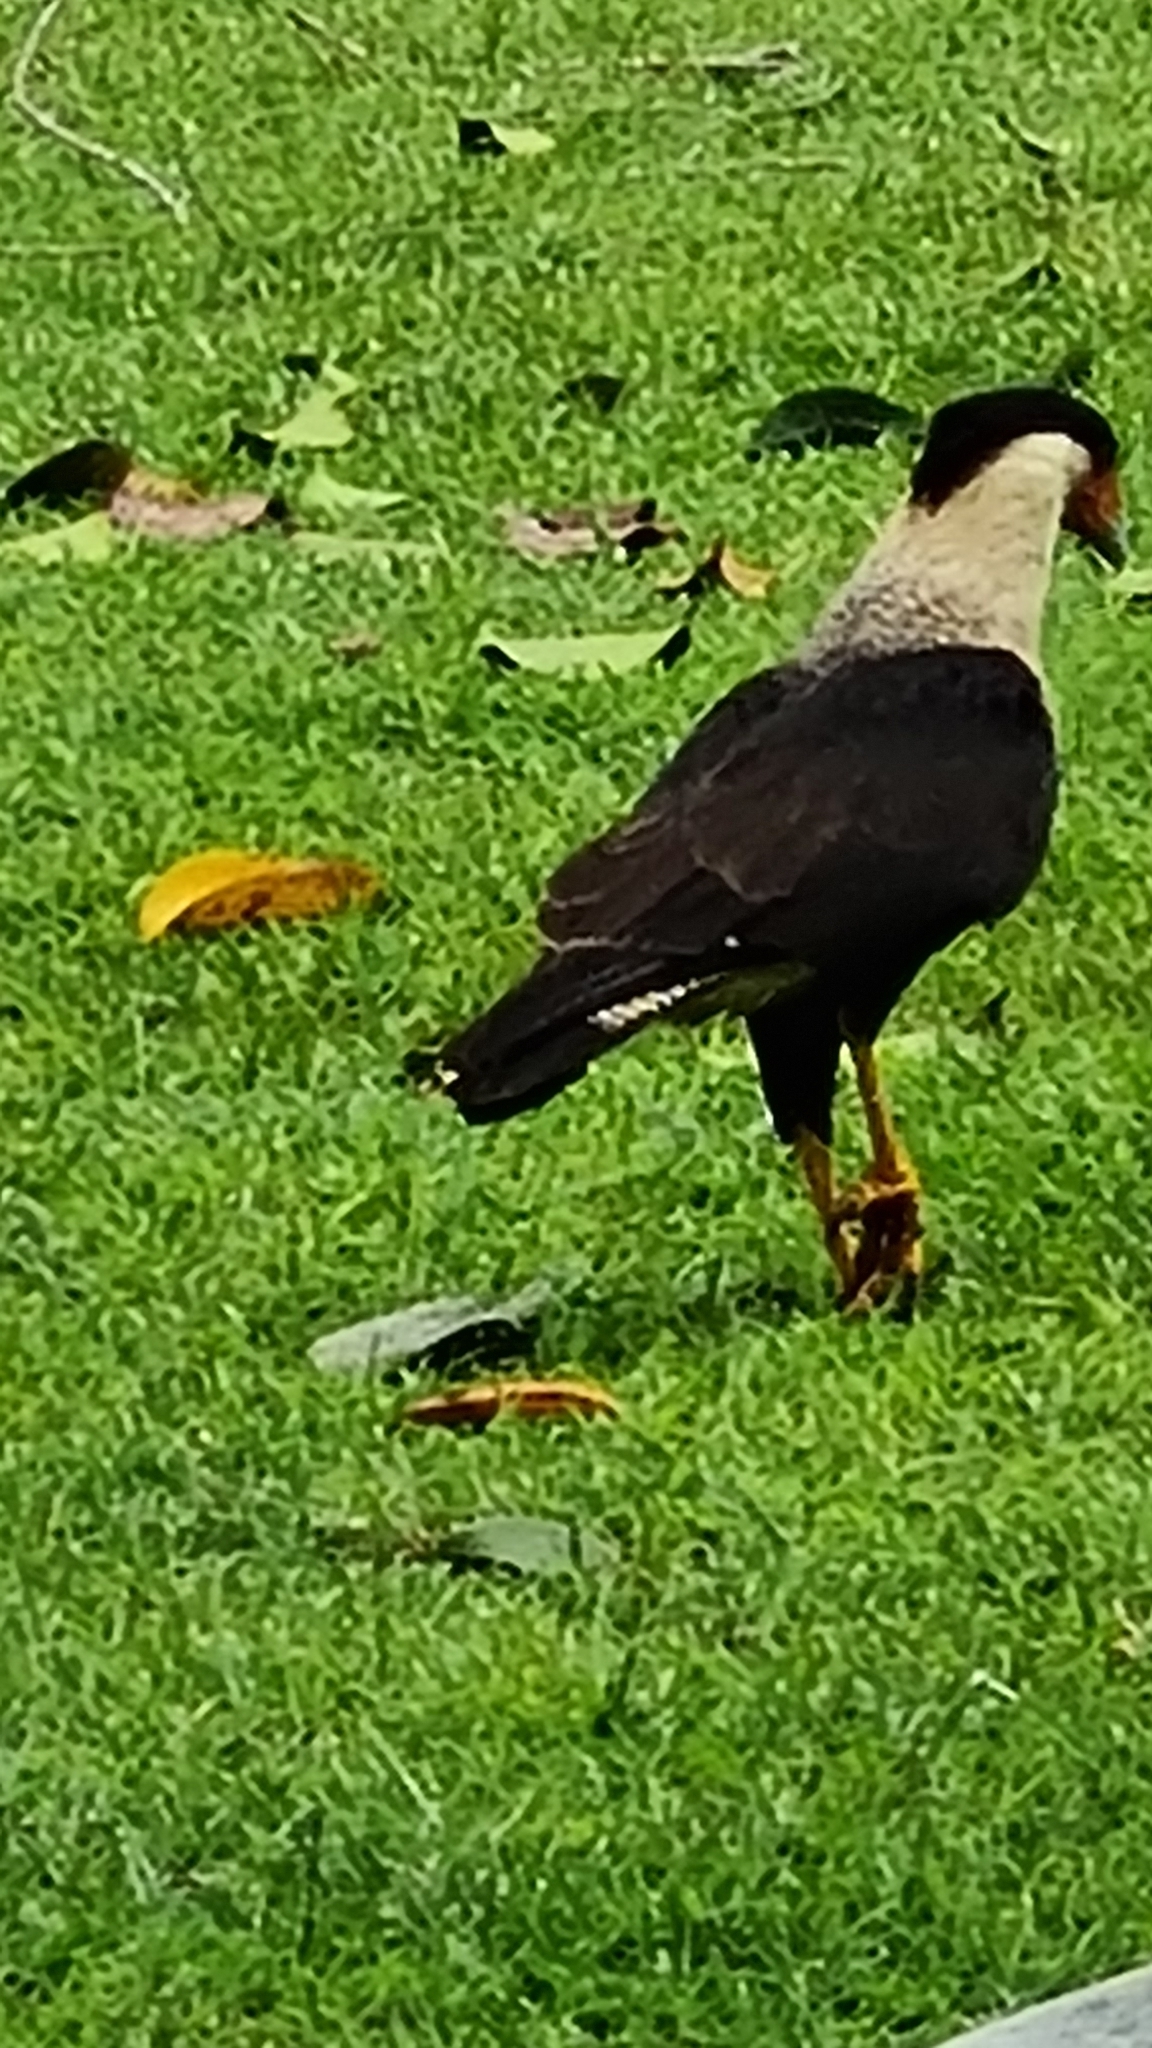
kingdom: Animalia
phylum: Chordata
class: Aves
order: Falconiformes
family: Falconidae
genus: Caracara
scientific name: Caracara plancus
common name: Southern caracara
